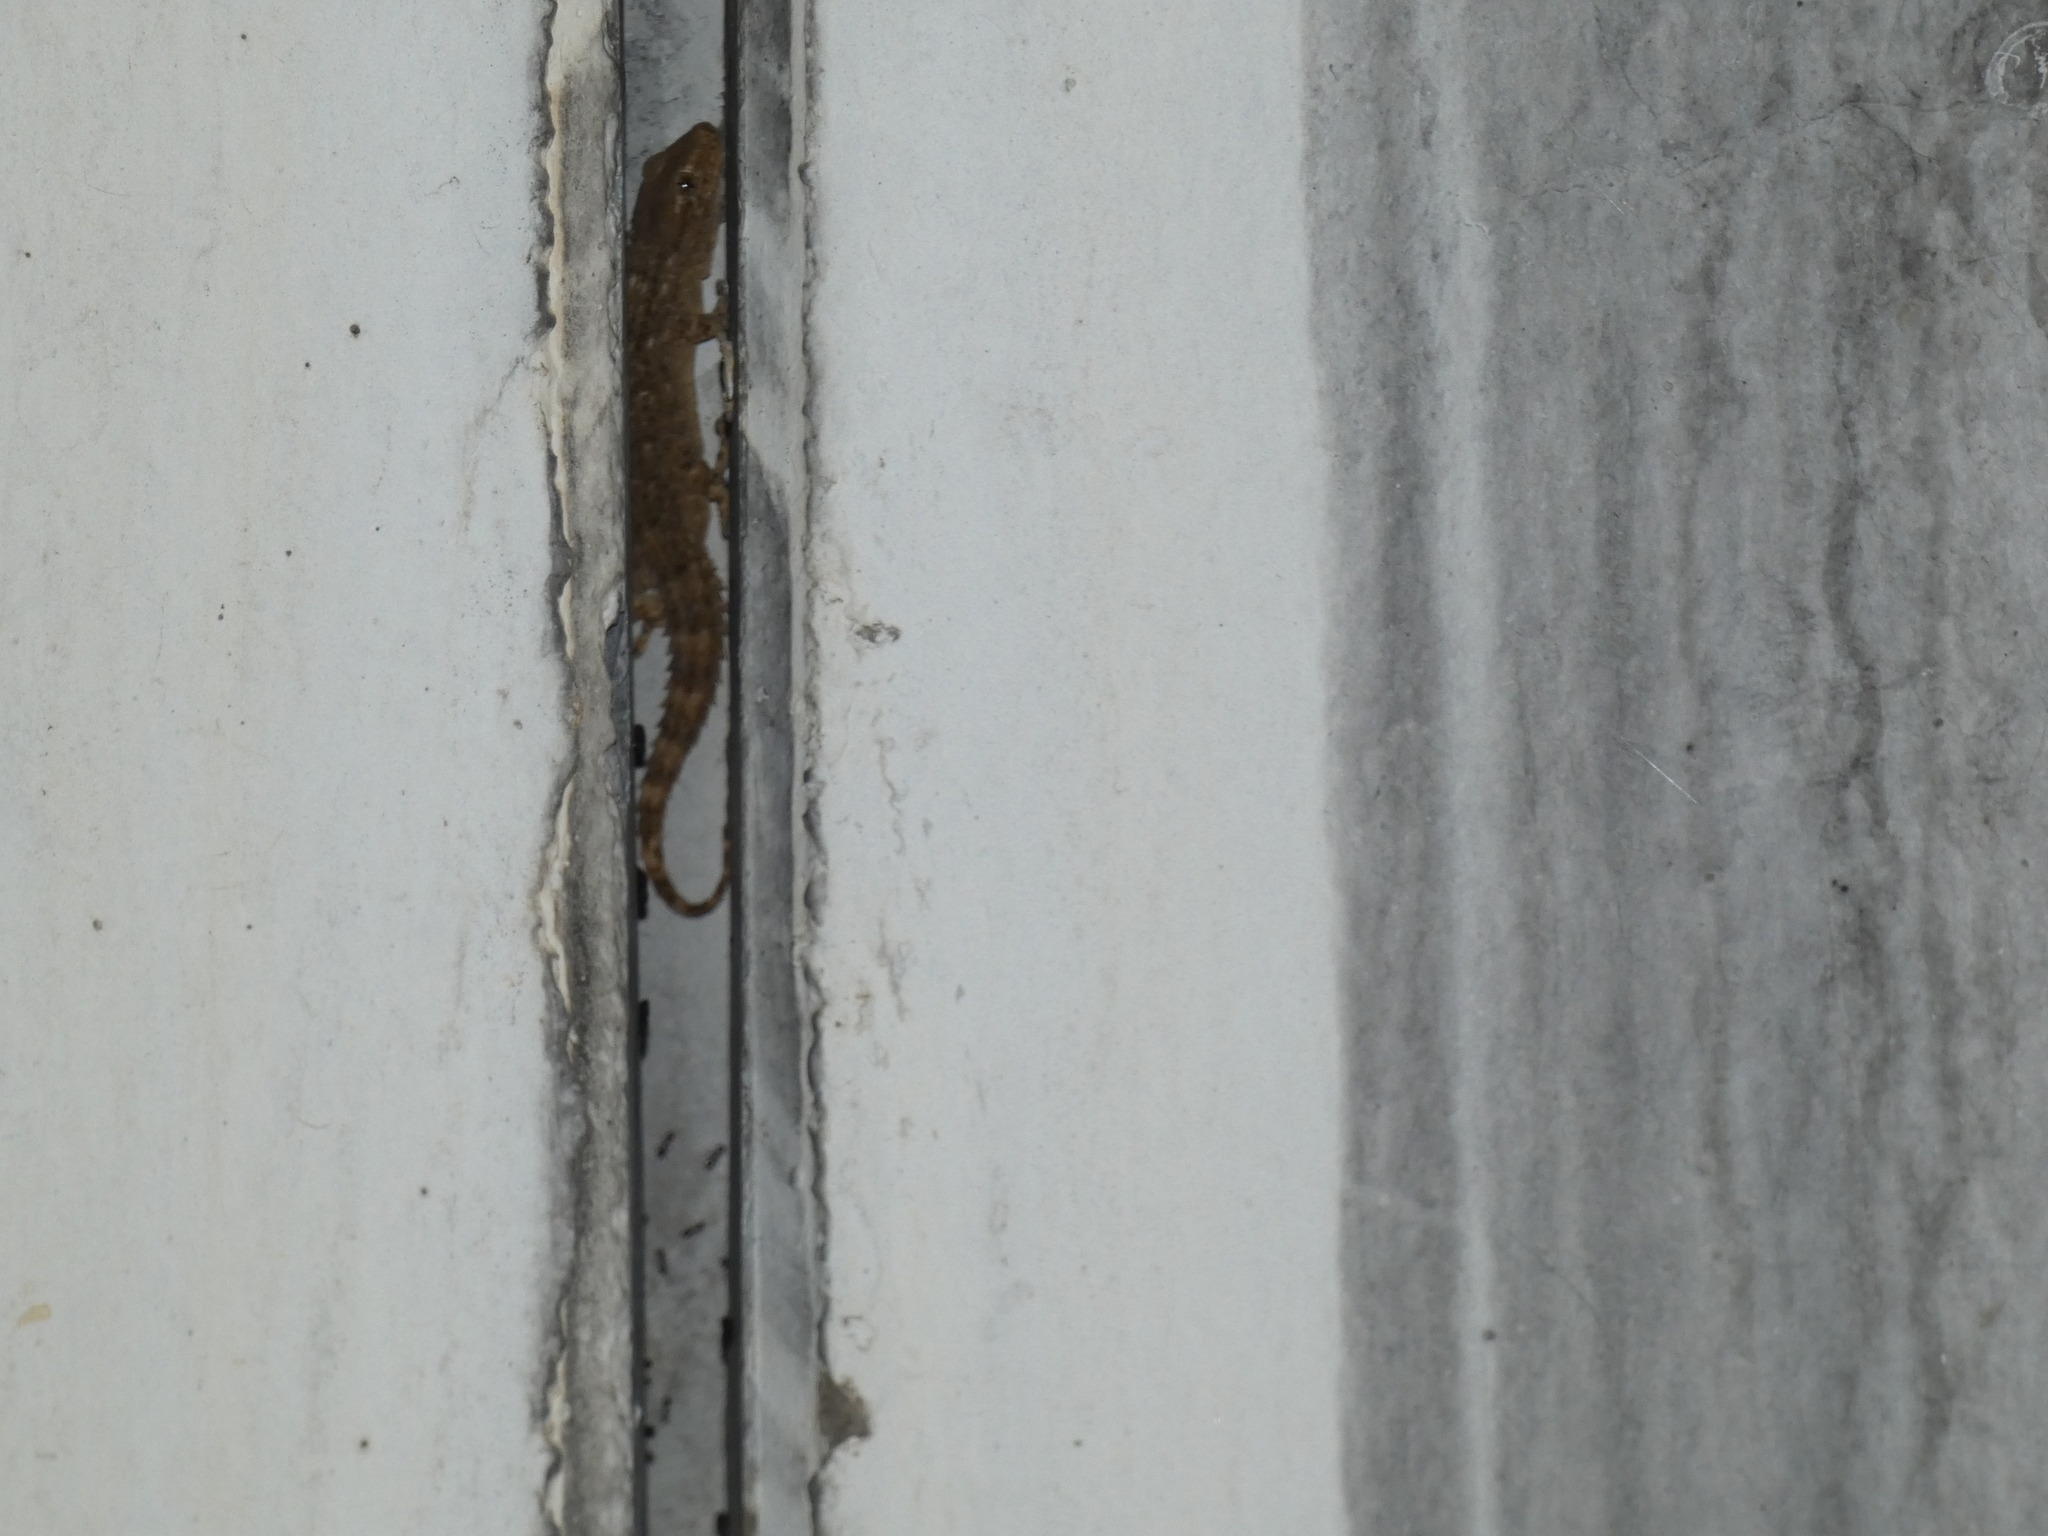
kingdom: Animalia
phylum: Chordata
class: Squamata
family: Phyllodactylidae
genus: Tarentola
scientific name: Tarentola mauritanica
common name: Moorish gecko
